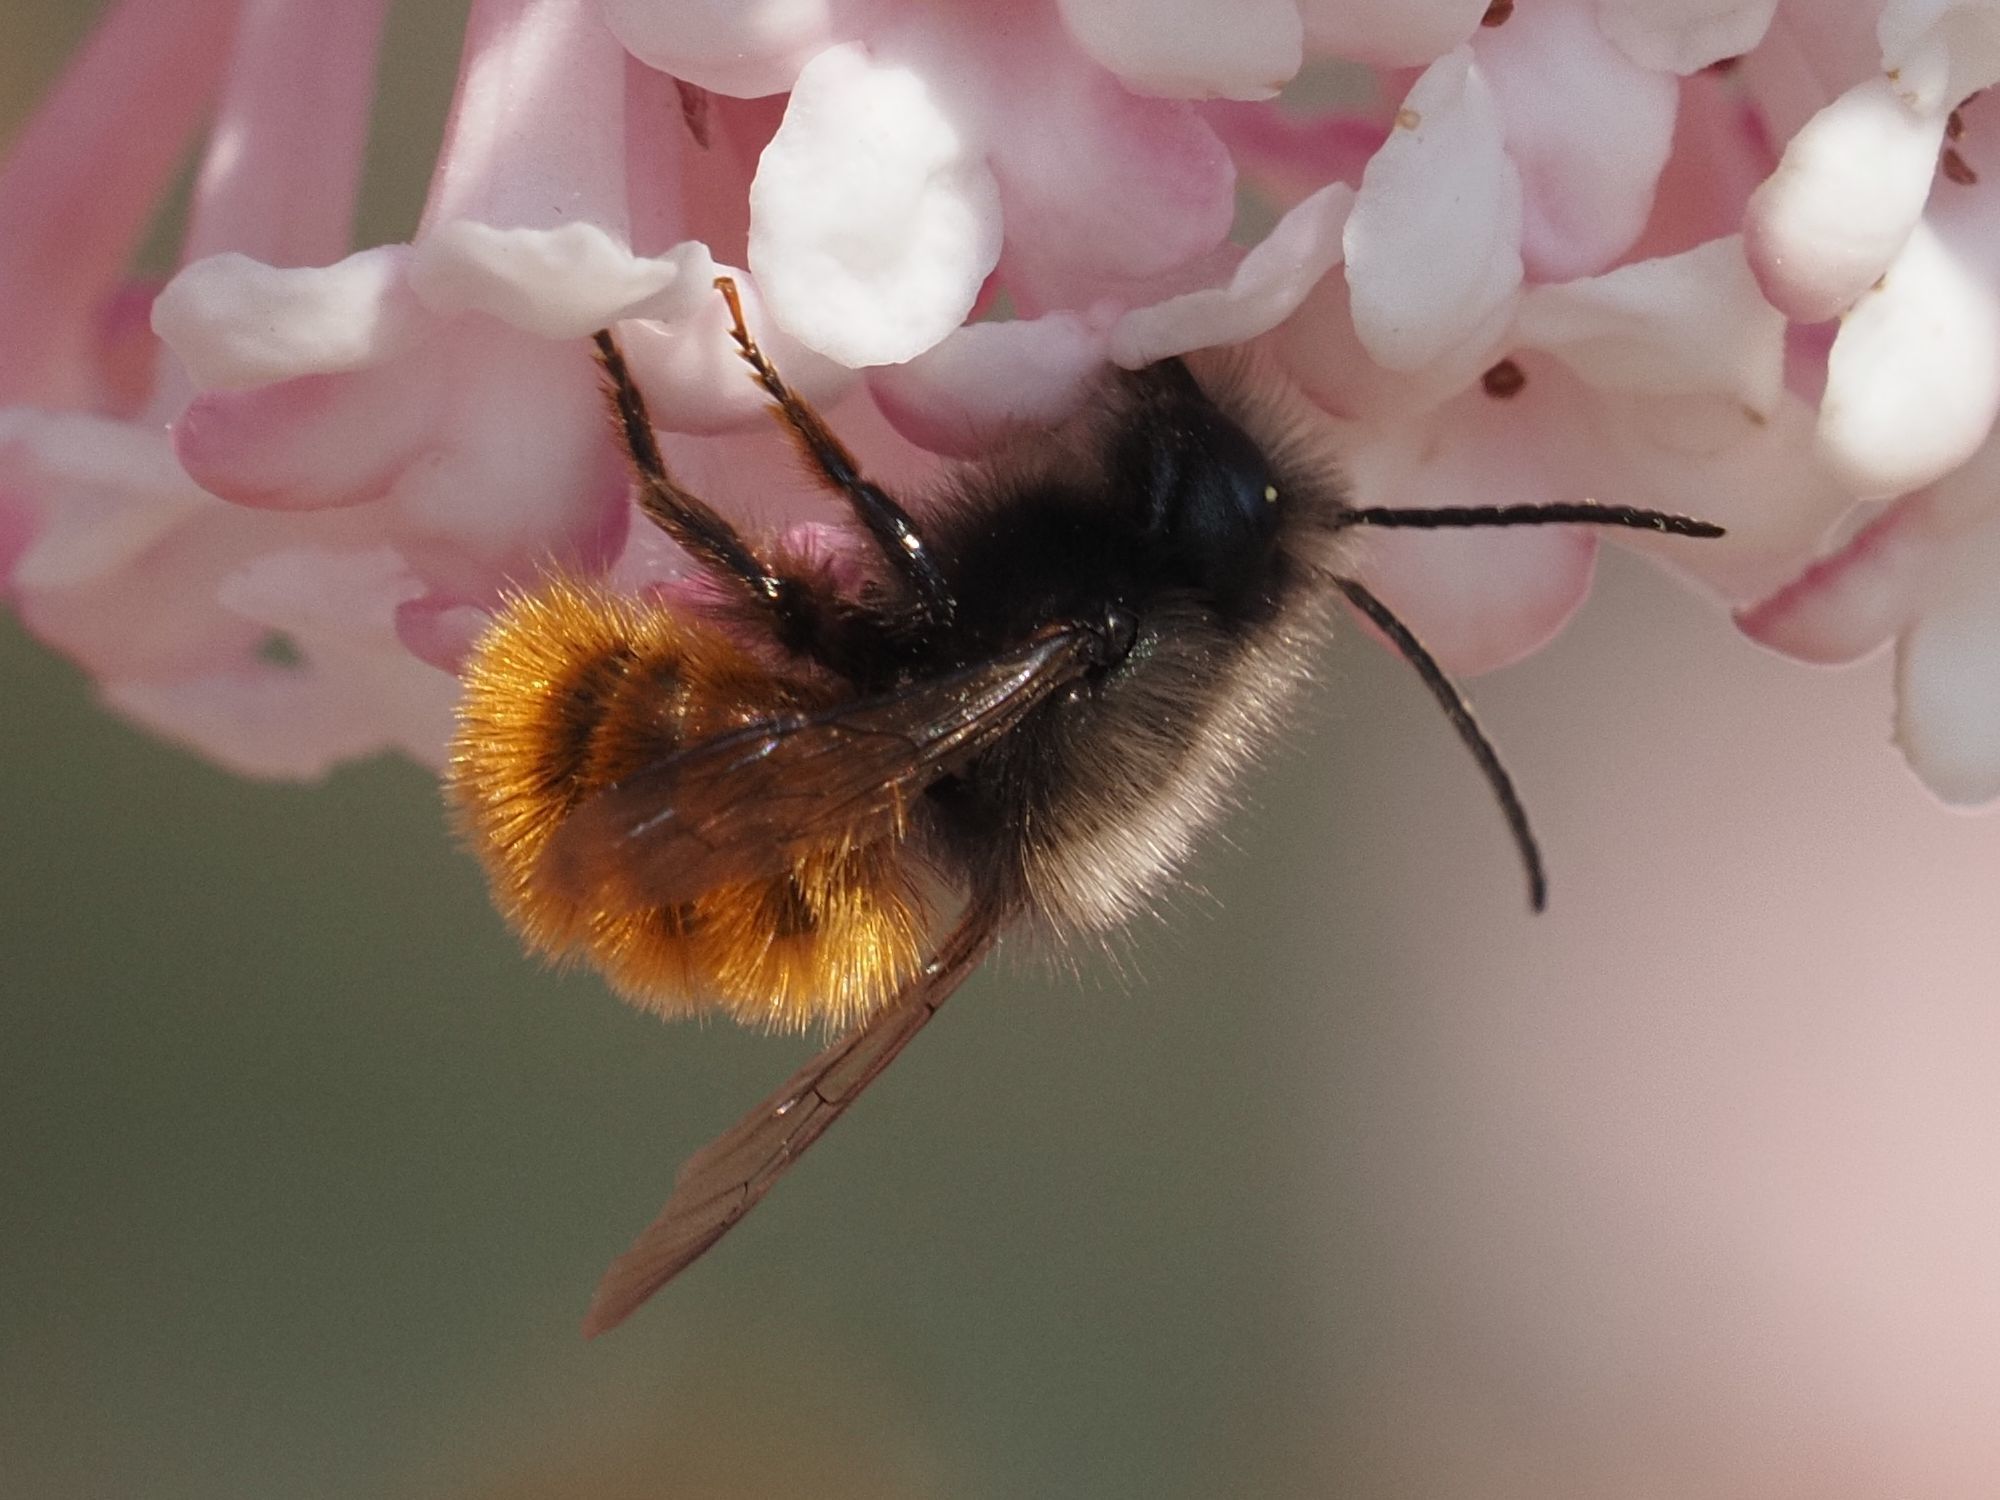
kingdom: Animalia
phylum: Arthropoda
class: Insecta
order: Hymenoptera
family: Megachilidae
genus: Osmia
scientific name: Osmia cornuta
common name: Mason bee
